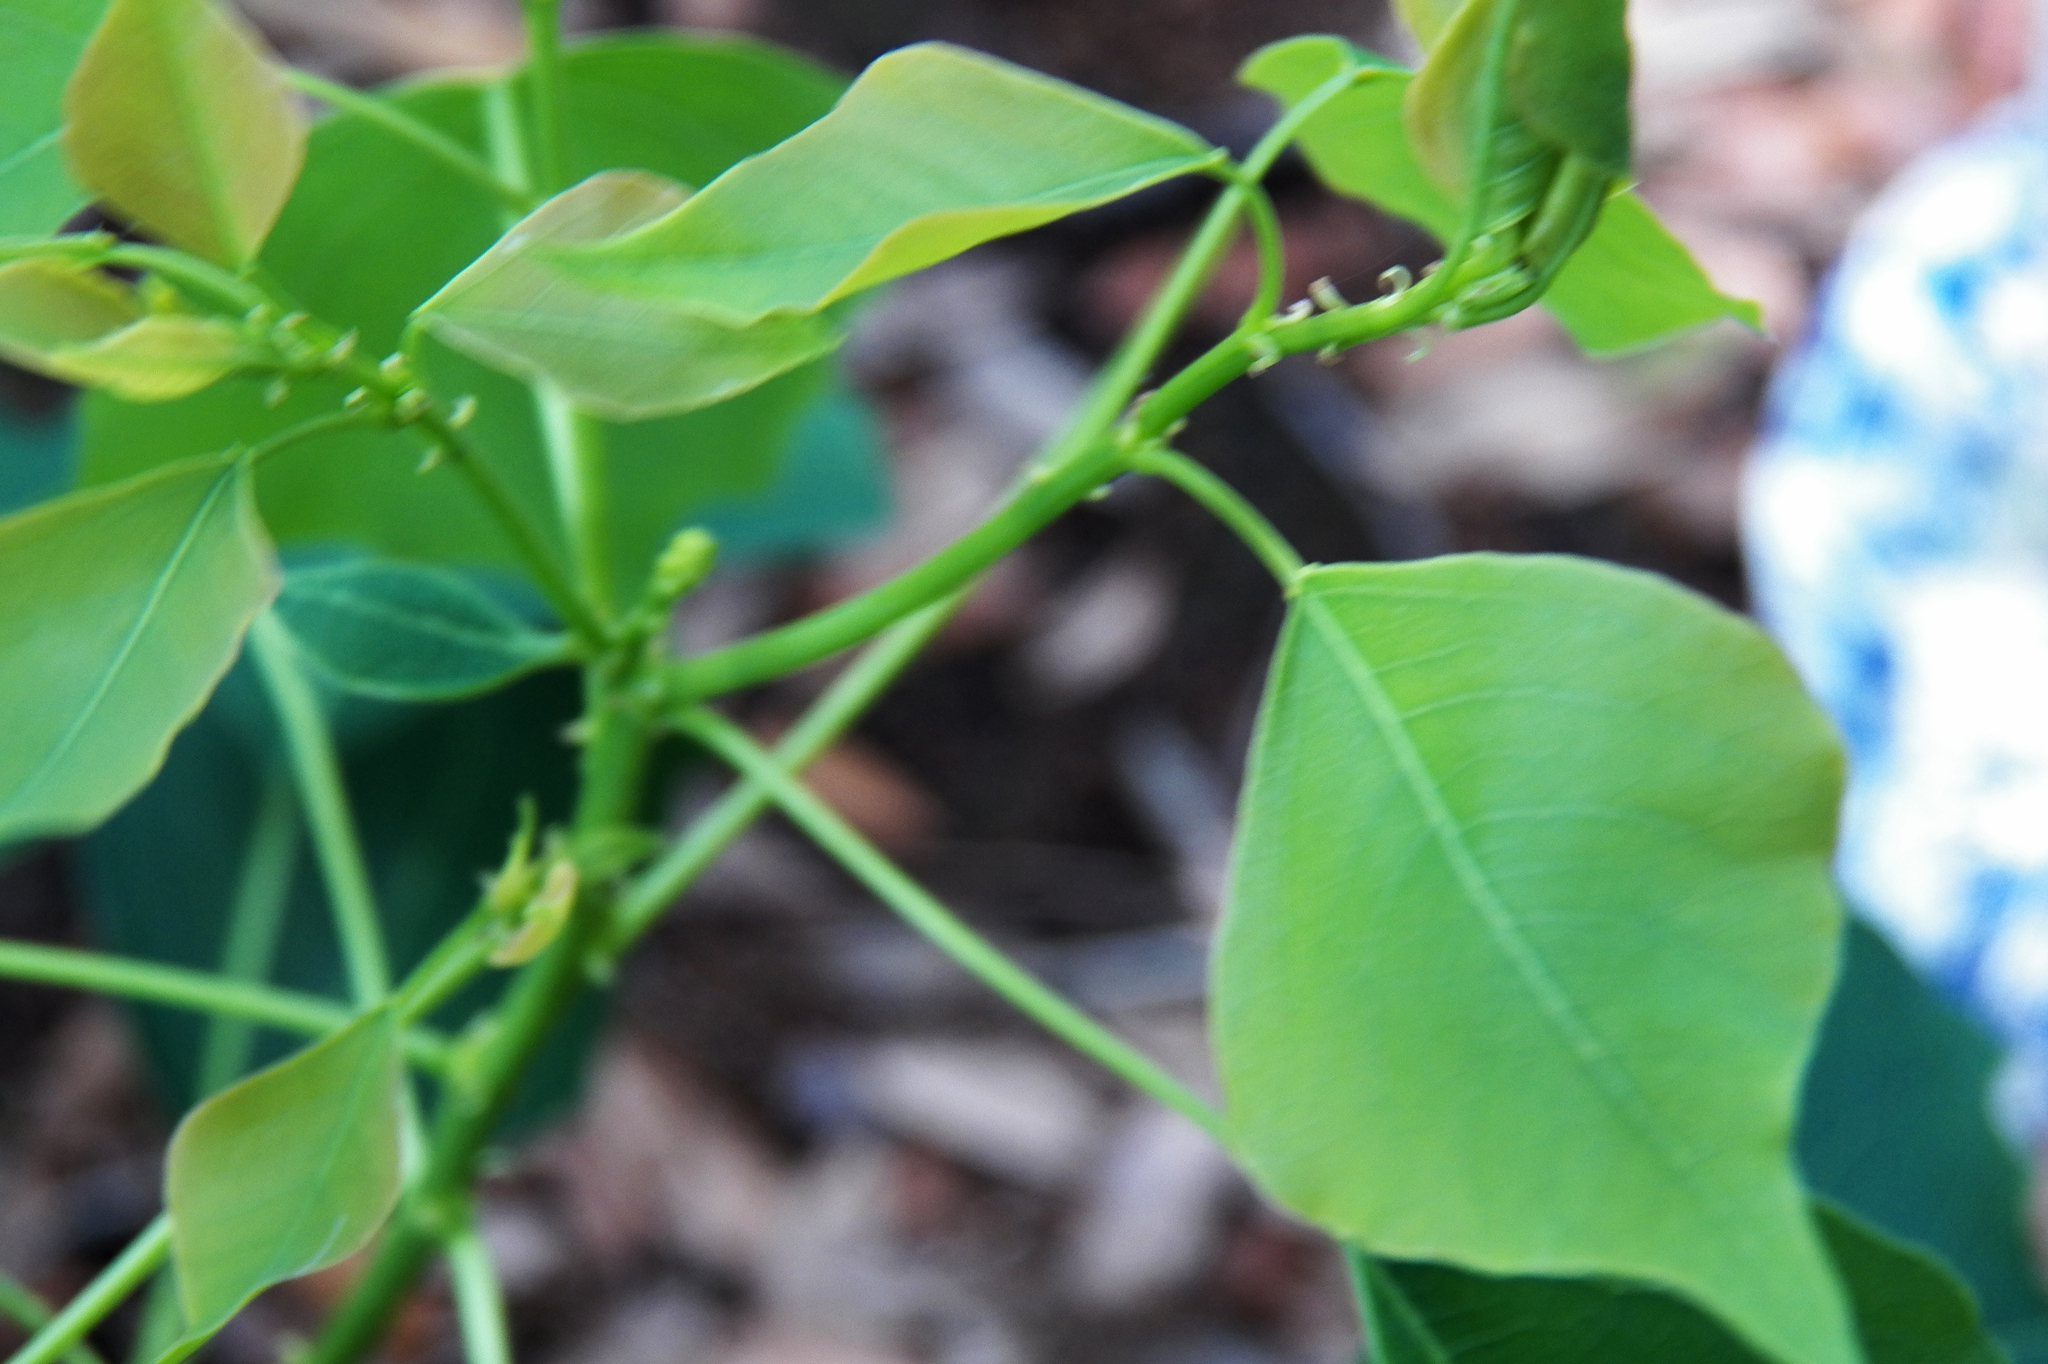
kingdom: Plantae
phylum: Tracheophyta
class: Magnoliopsida
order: Malpighiales
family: Euphorbiaceae
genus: Triadica
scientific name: Triadica sebifera
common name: Chinese tallow
